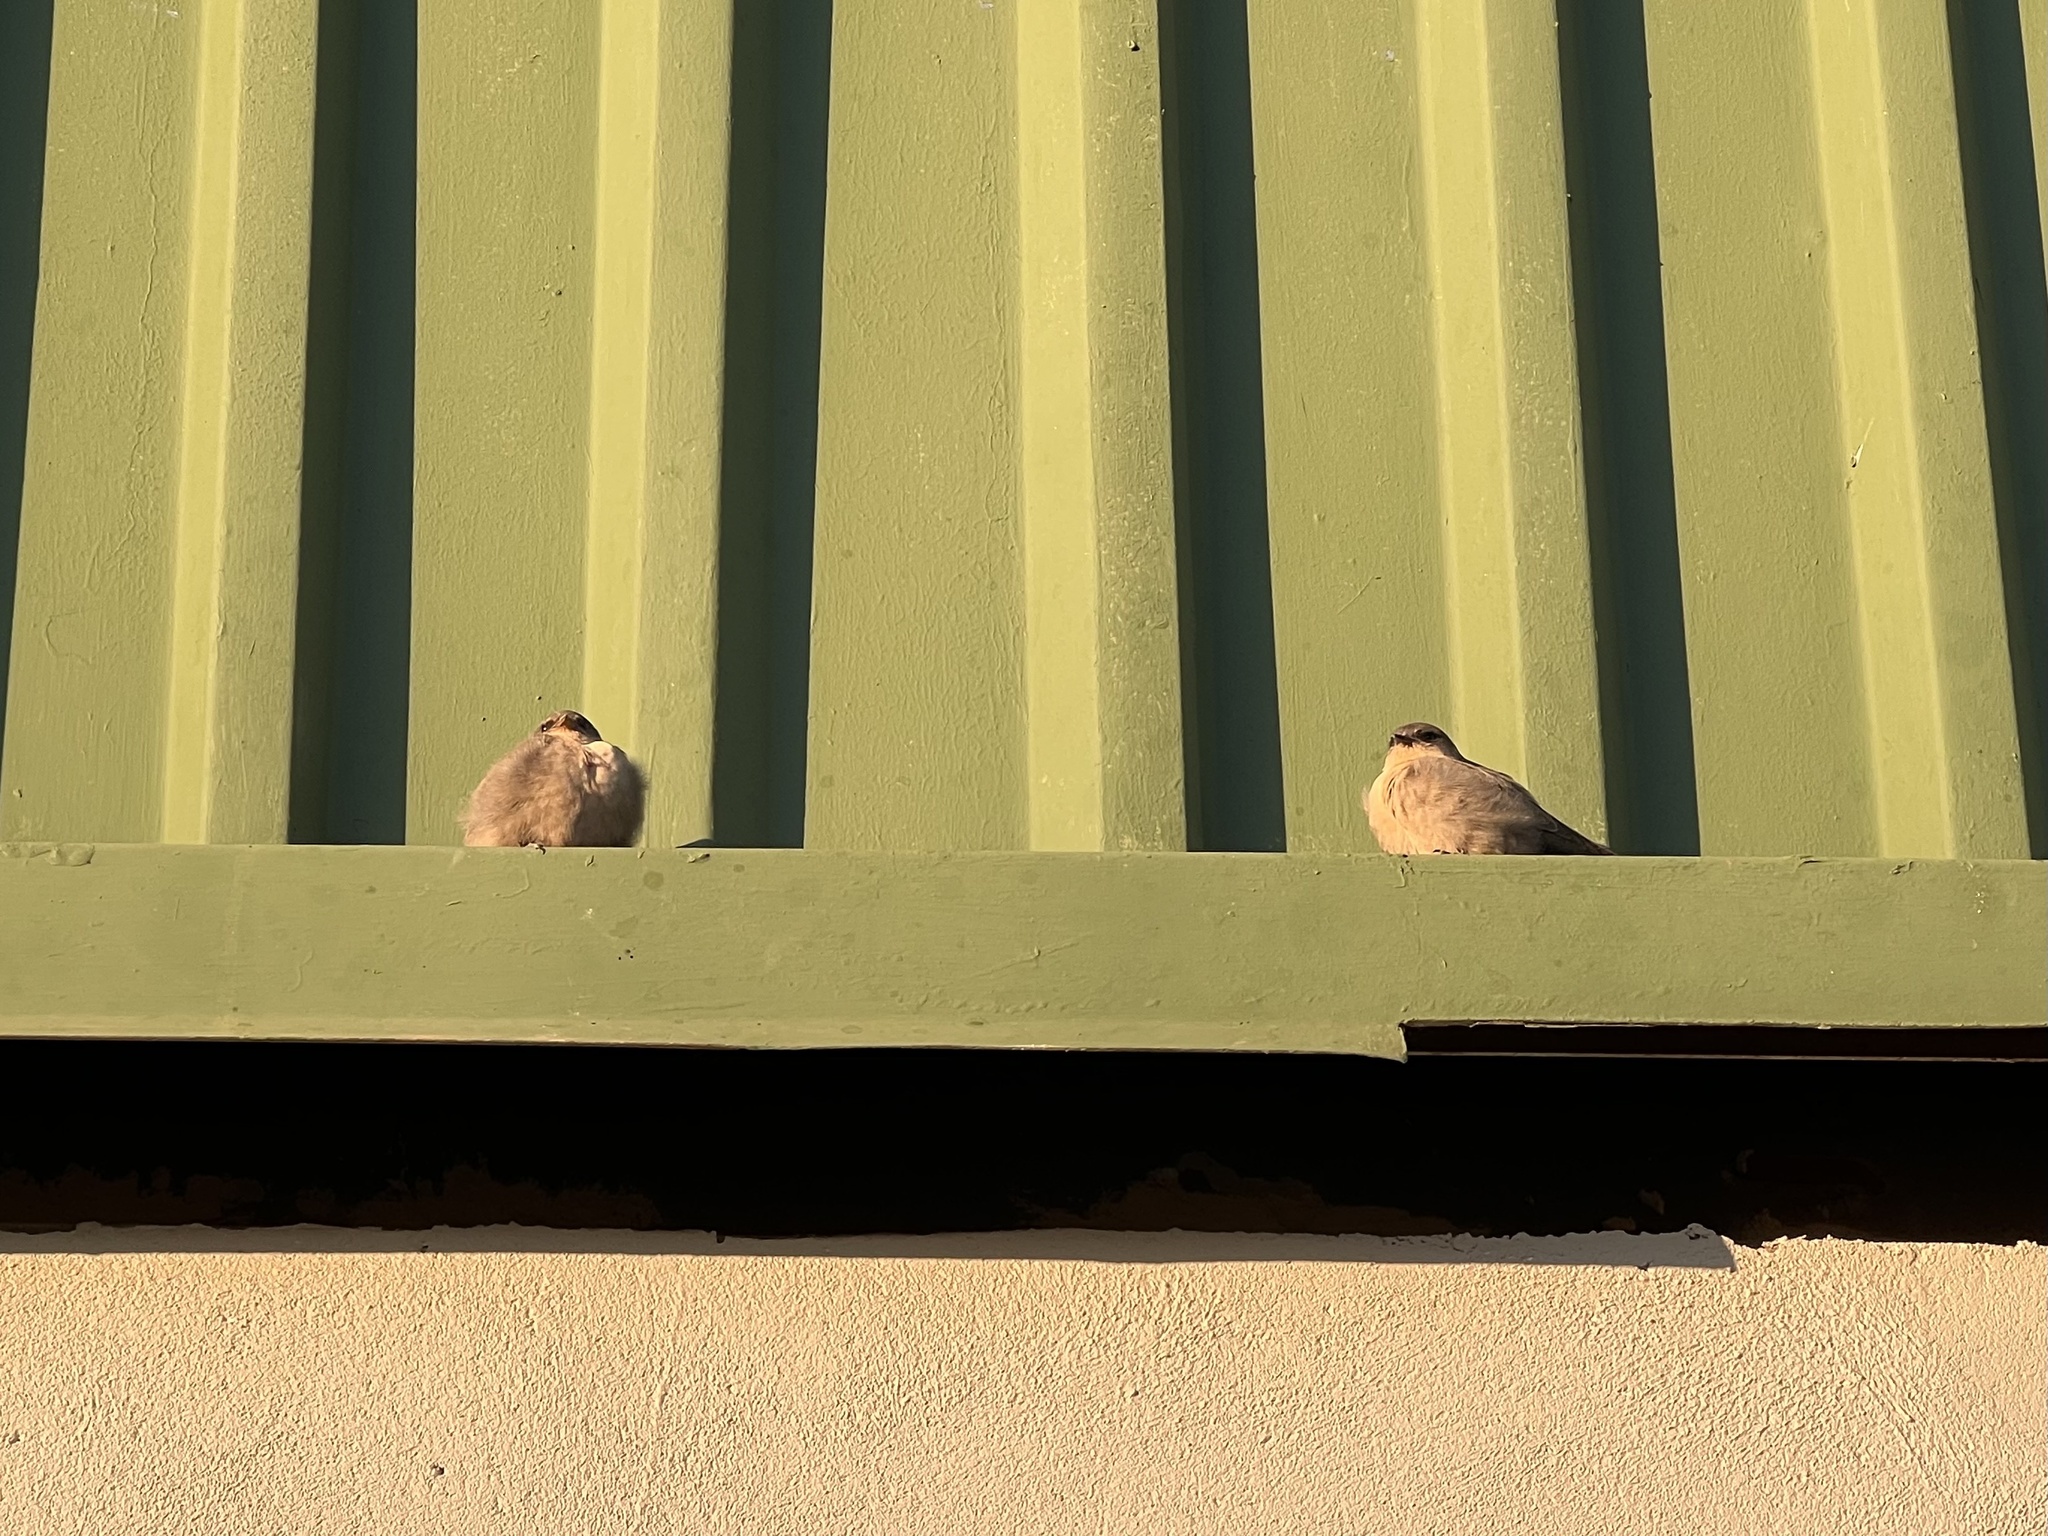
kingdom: Animalia
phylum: Chordata
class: Aves
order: Passeriformes
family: Hirundinidae
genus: Ptyonoprogne
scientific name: Ptyonoprogne fuligula
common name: Rock martin
